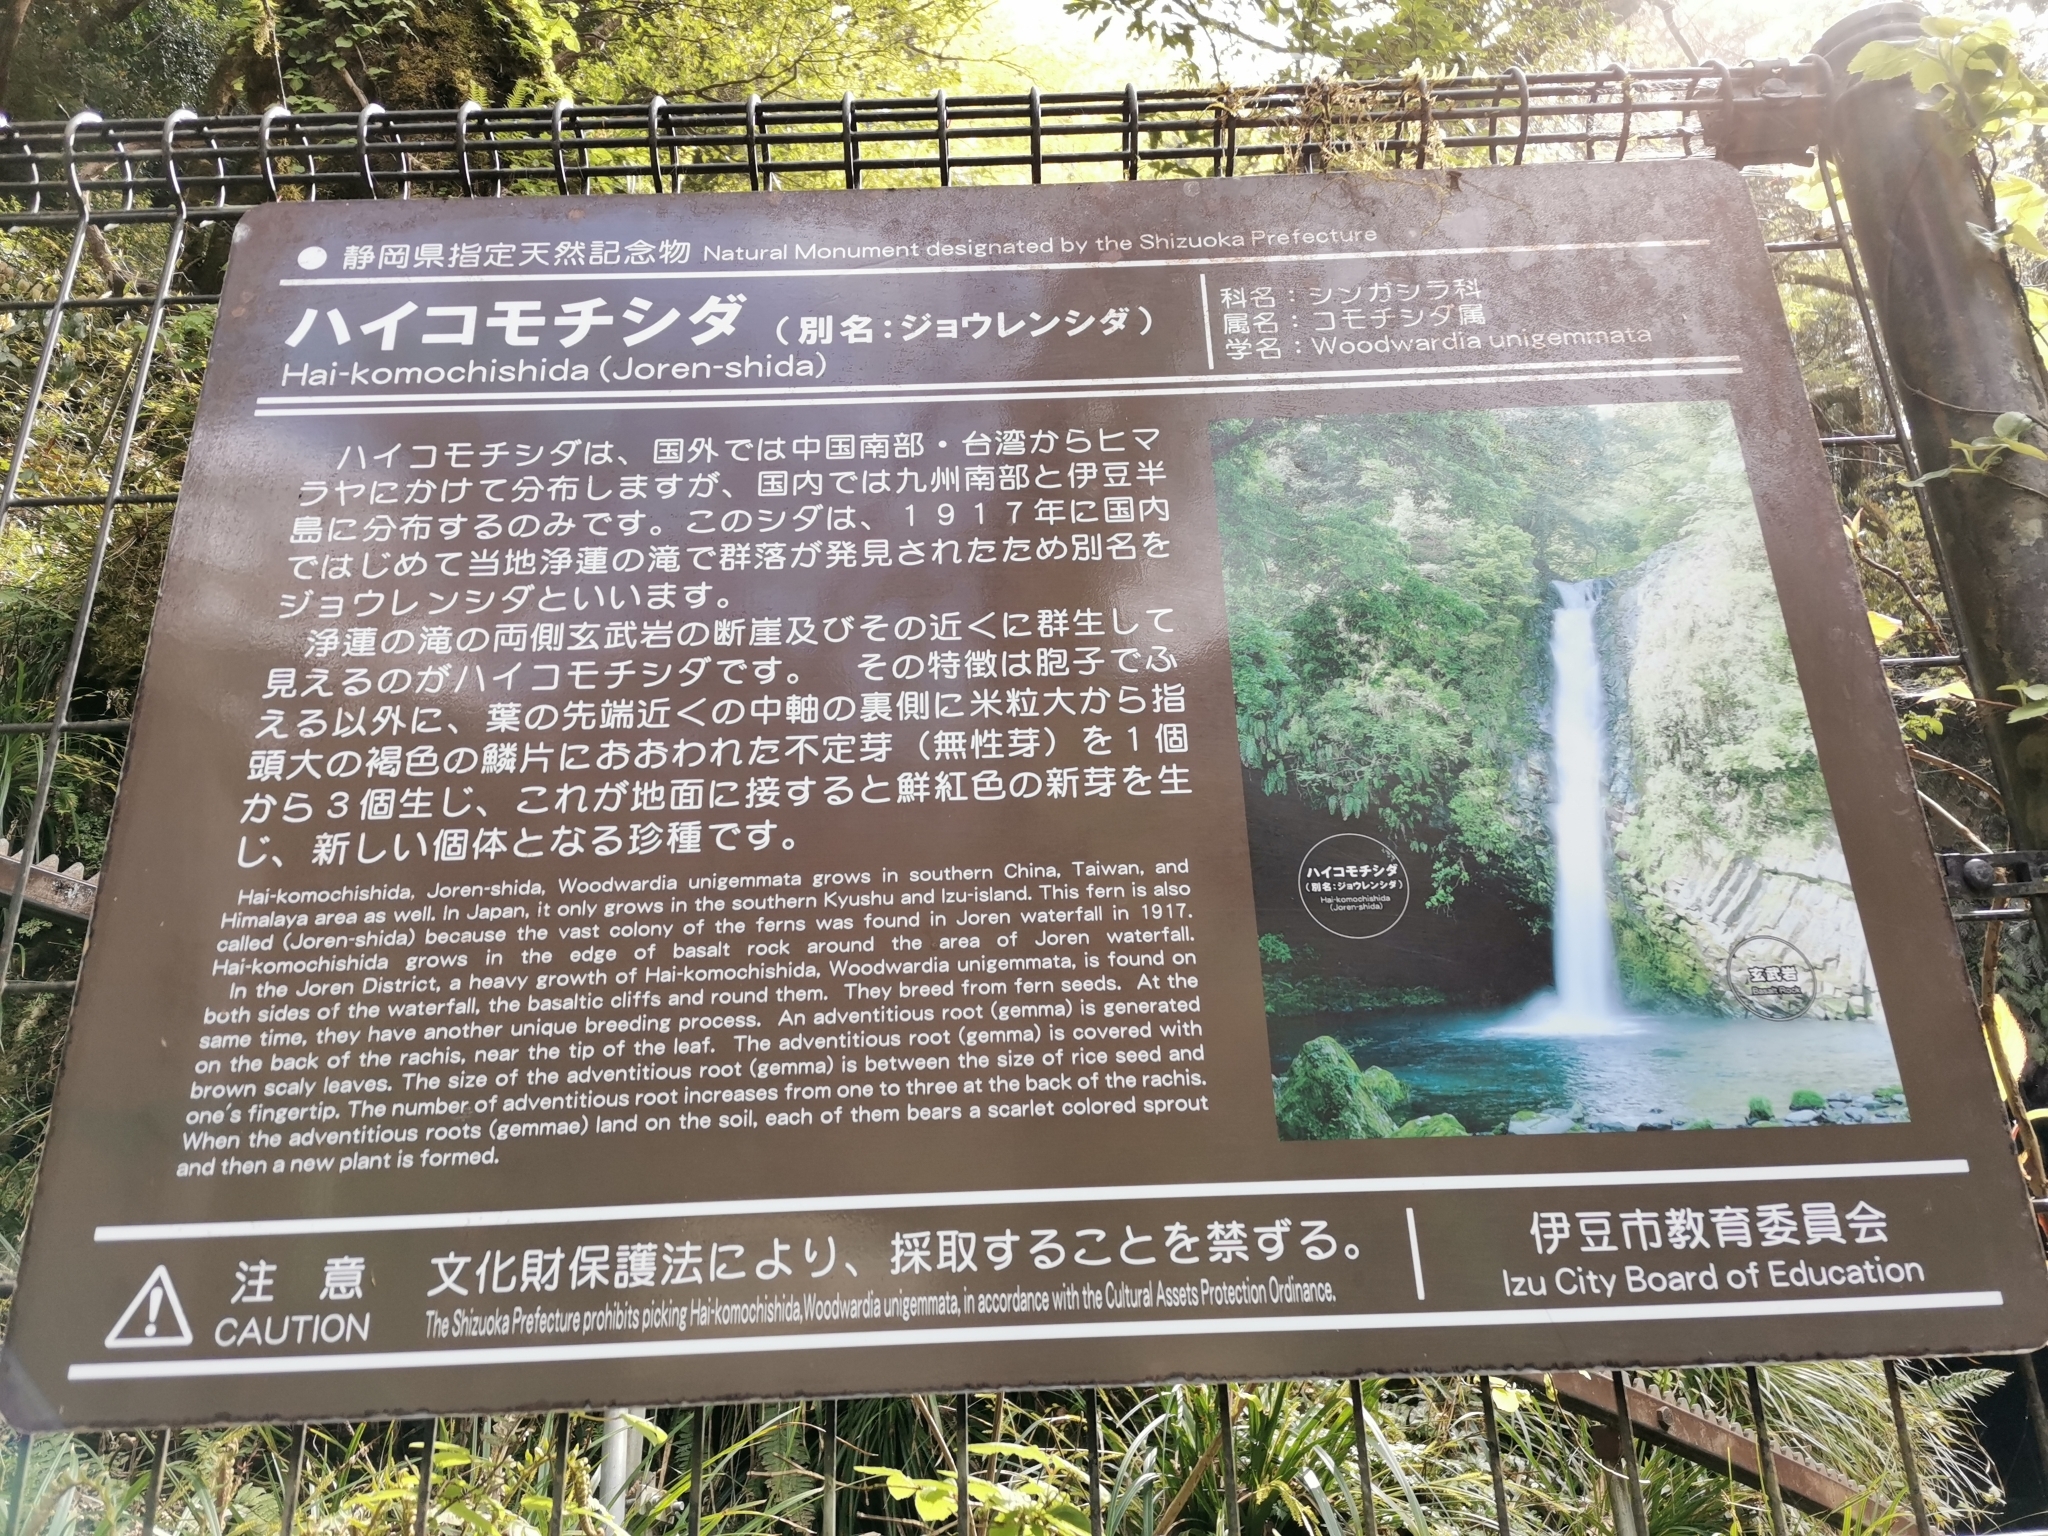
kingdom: Plantae
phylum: Tracheophyta
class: Polypodiopsida
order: Polypodiales
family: Blechnaceae
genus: Woodwardia
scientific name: Woodwardia unigemmata
